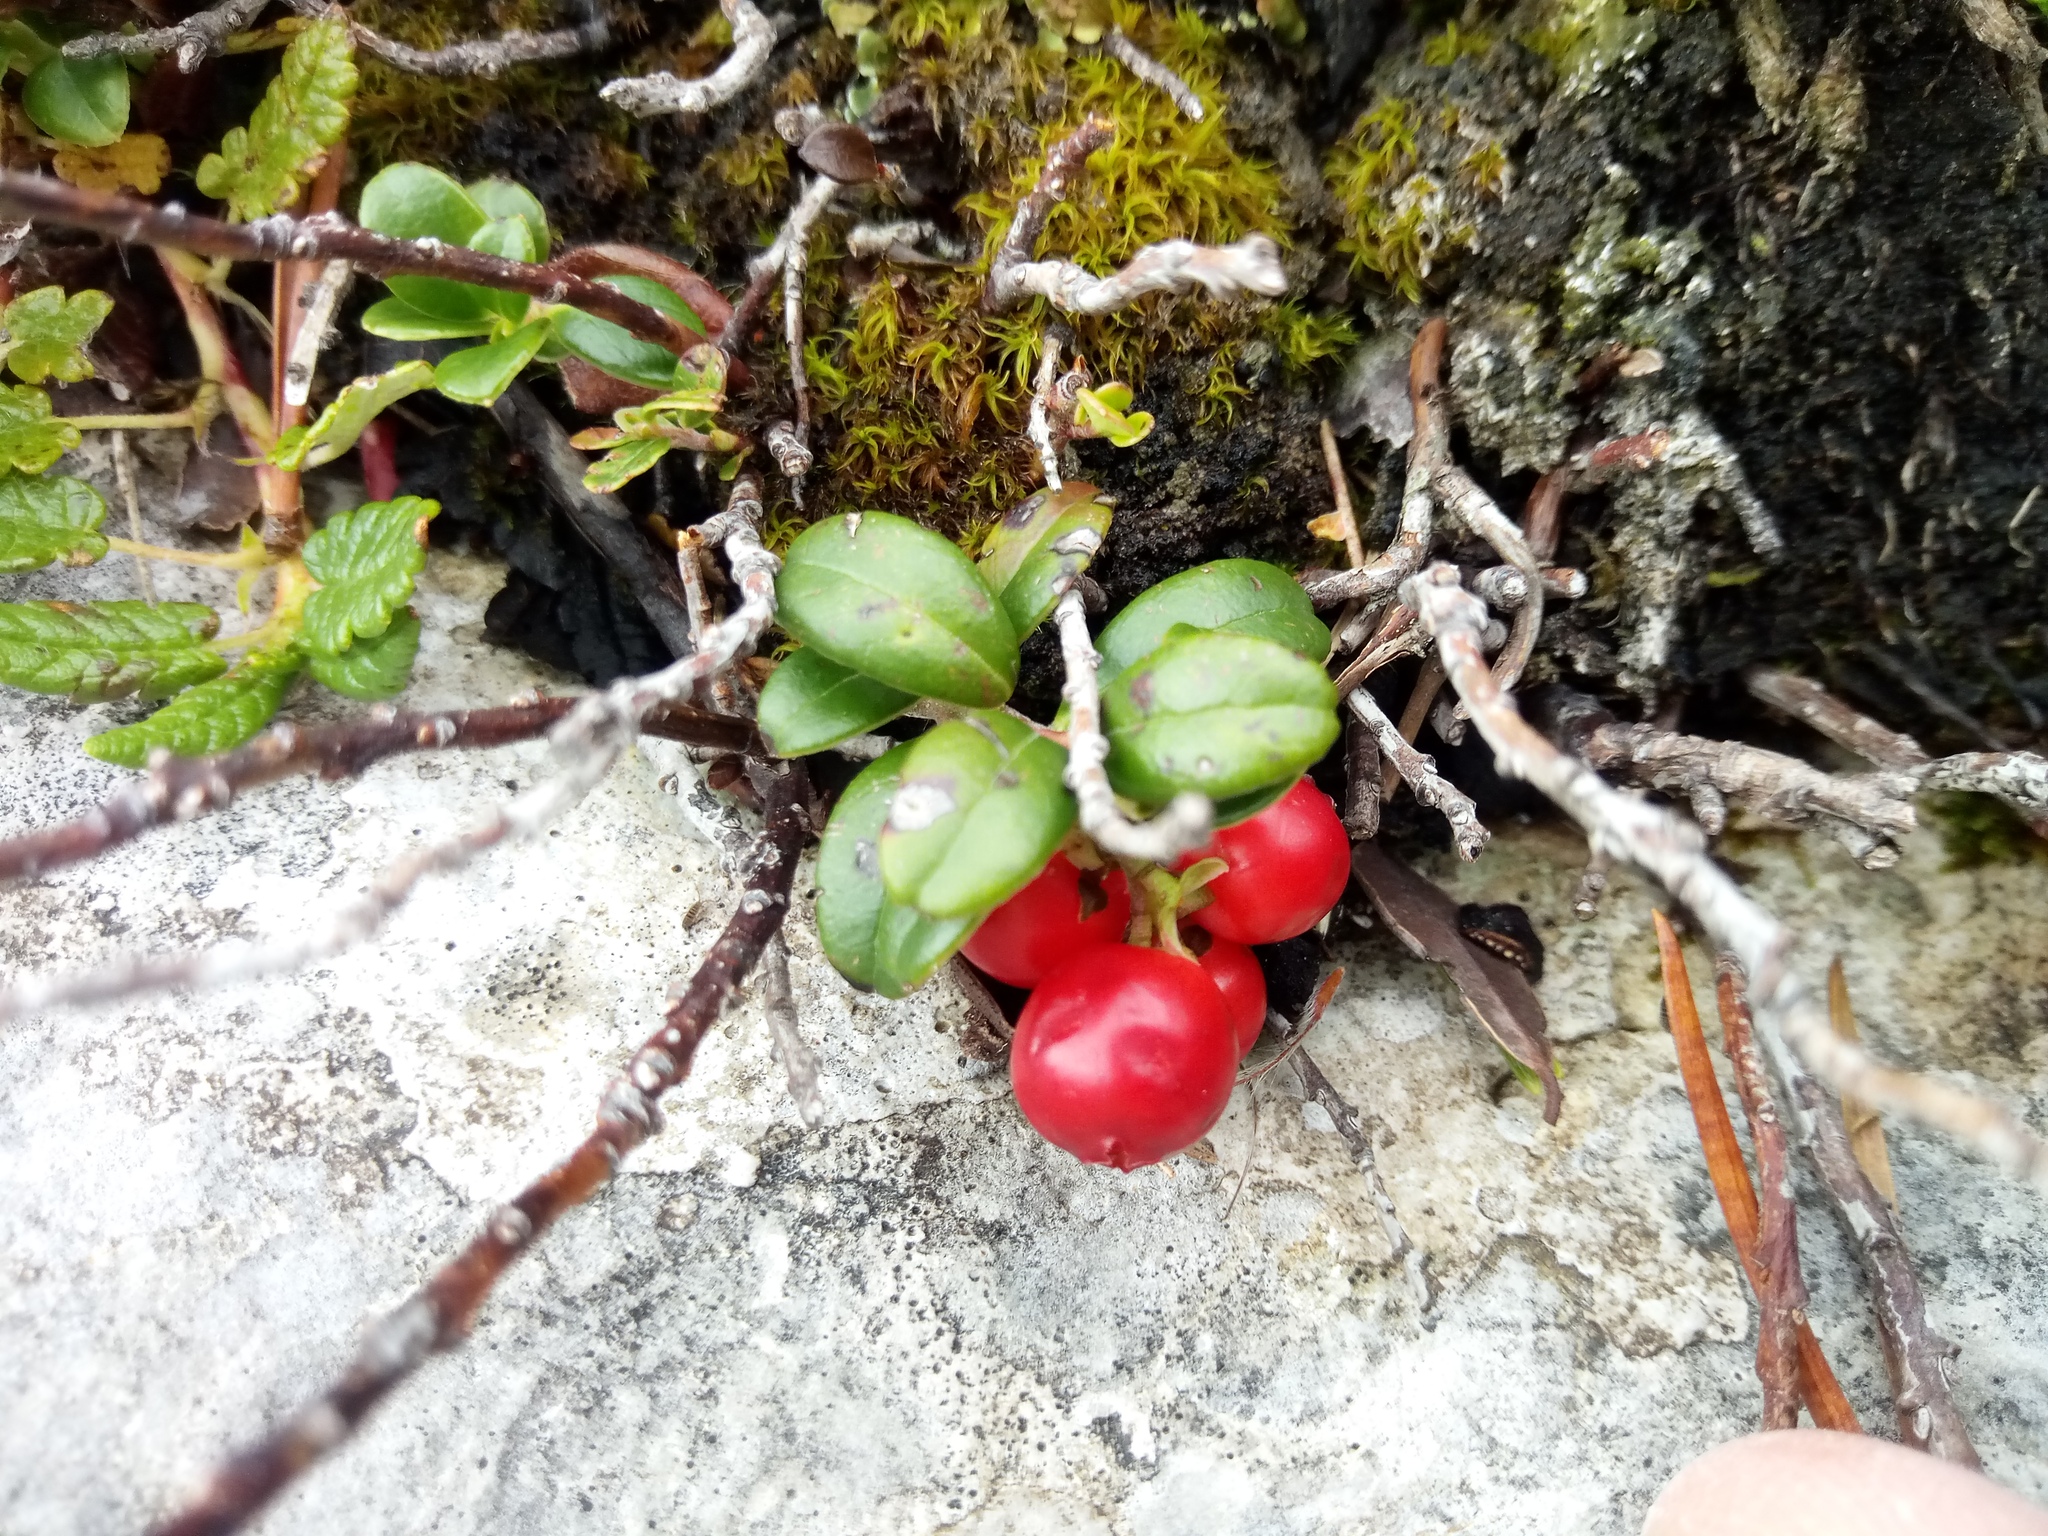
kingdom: Plantae
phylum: Tracheophyta
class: Magnoliopsida
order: Ericales
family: Ericaceae
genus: Vaccinium
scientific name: Vaccinium vitis-idaea
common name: Cowberry
